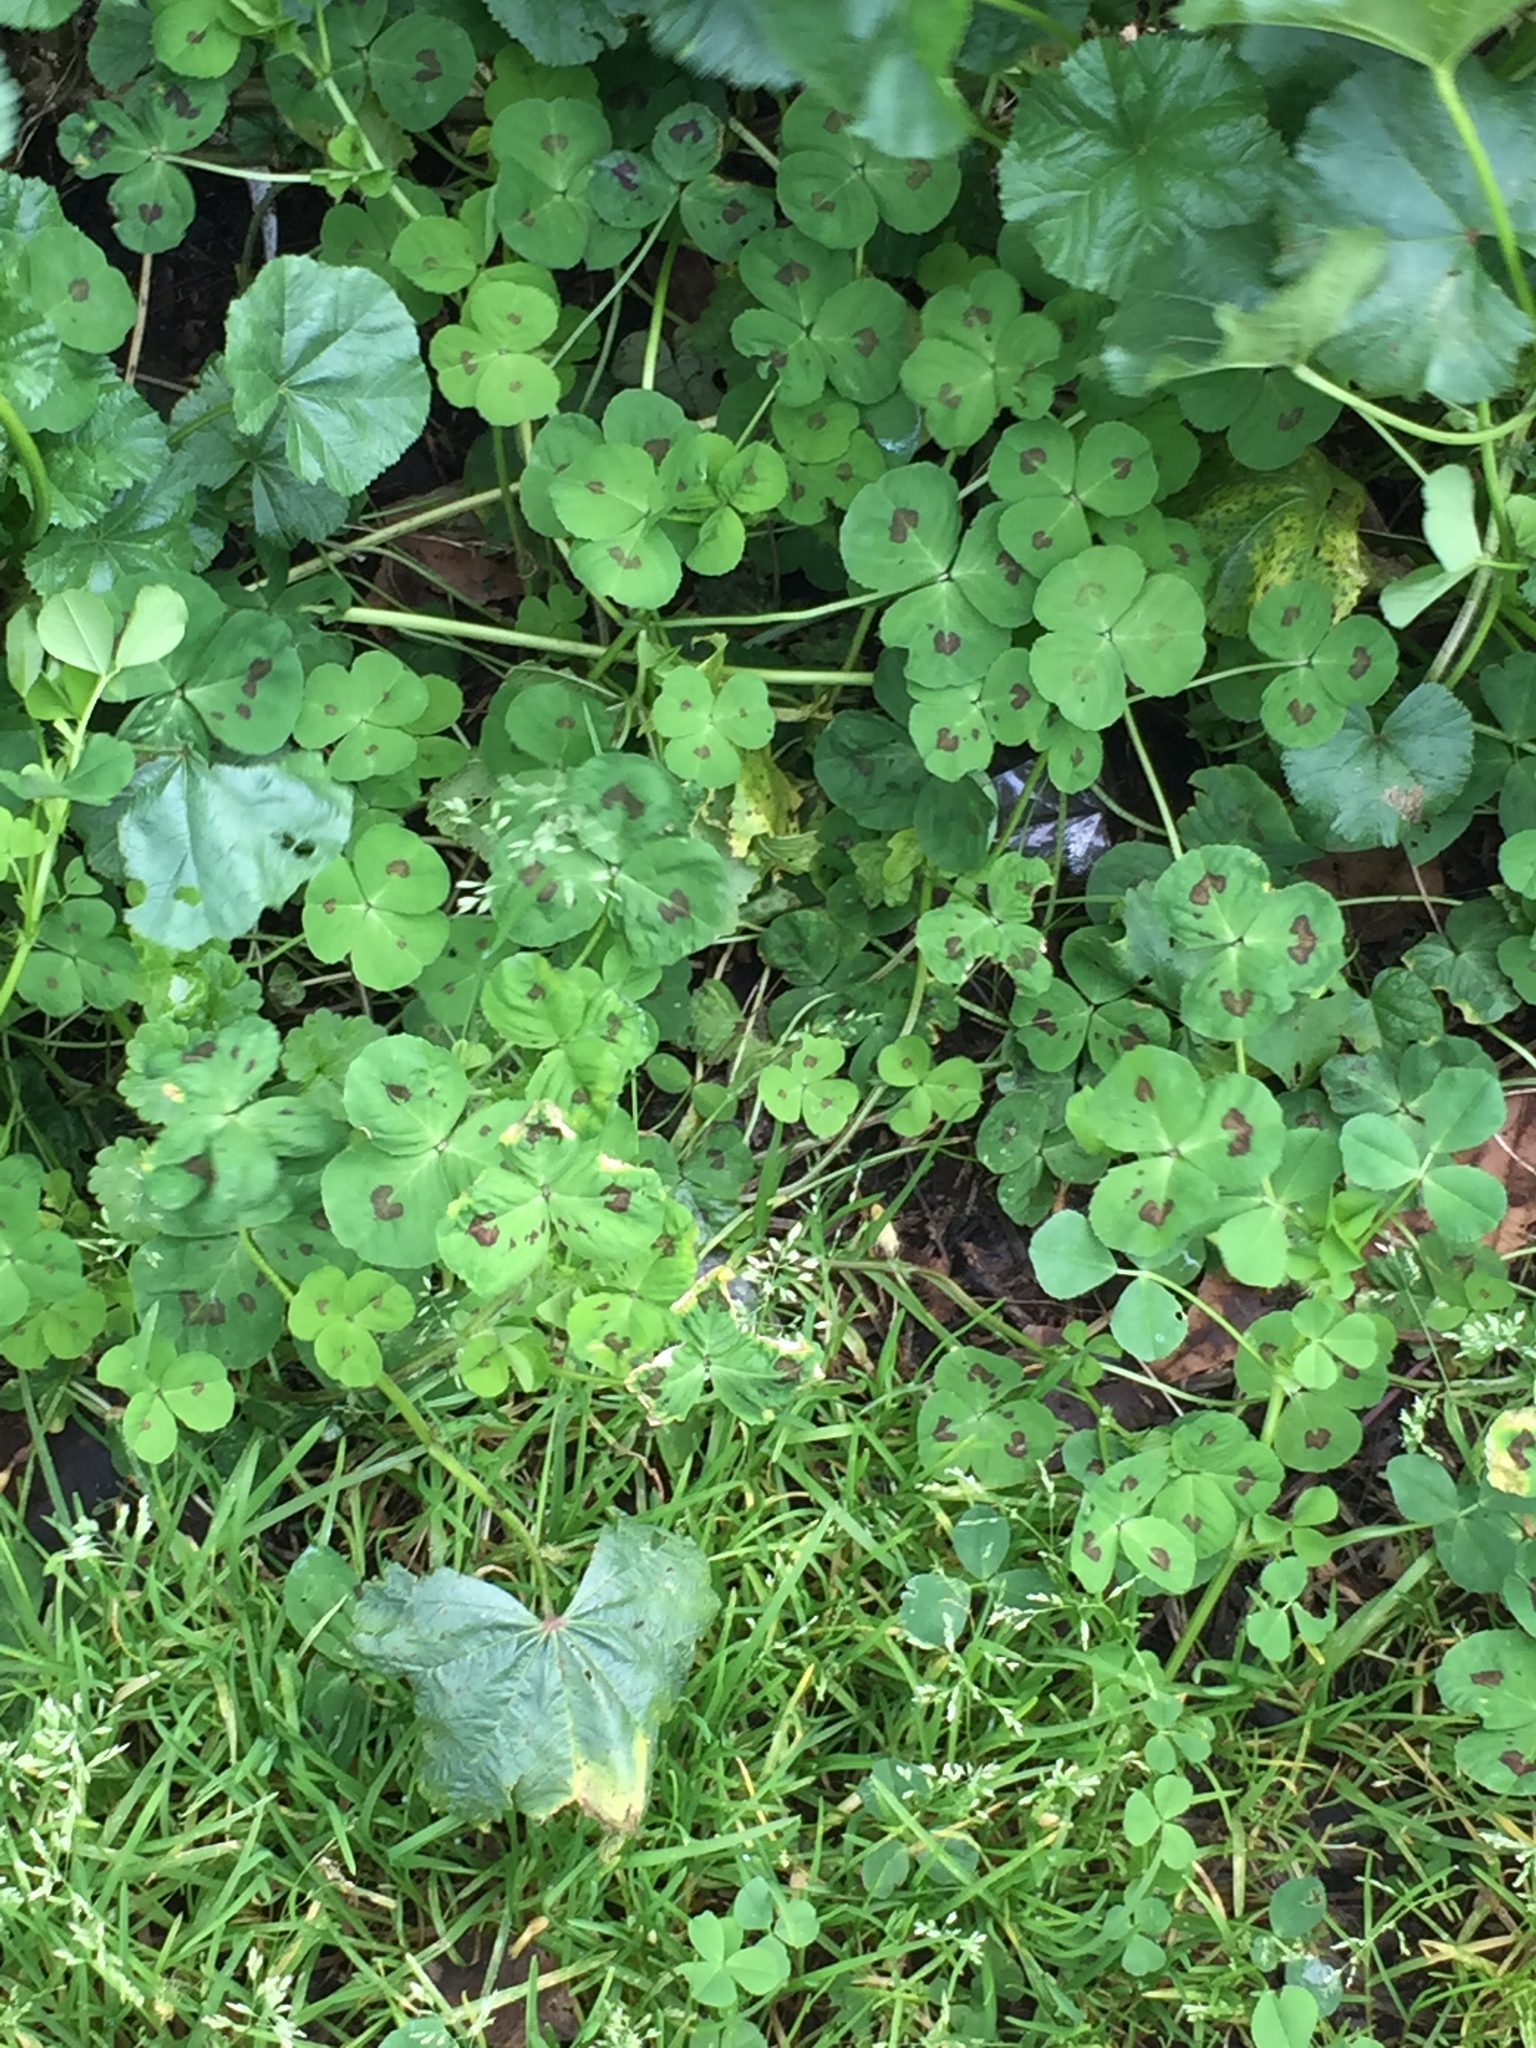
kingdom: Plantae
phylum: Tracheophyta
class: Magnoliopsida
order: Fabales
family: Fabaceae
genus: Medicago
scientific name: Medicago arabica
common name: Spotted medick
